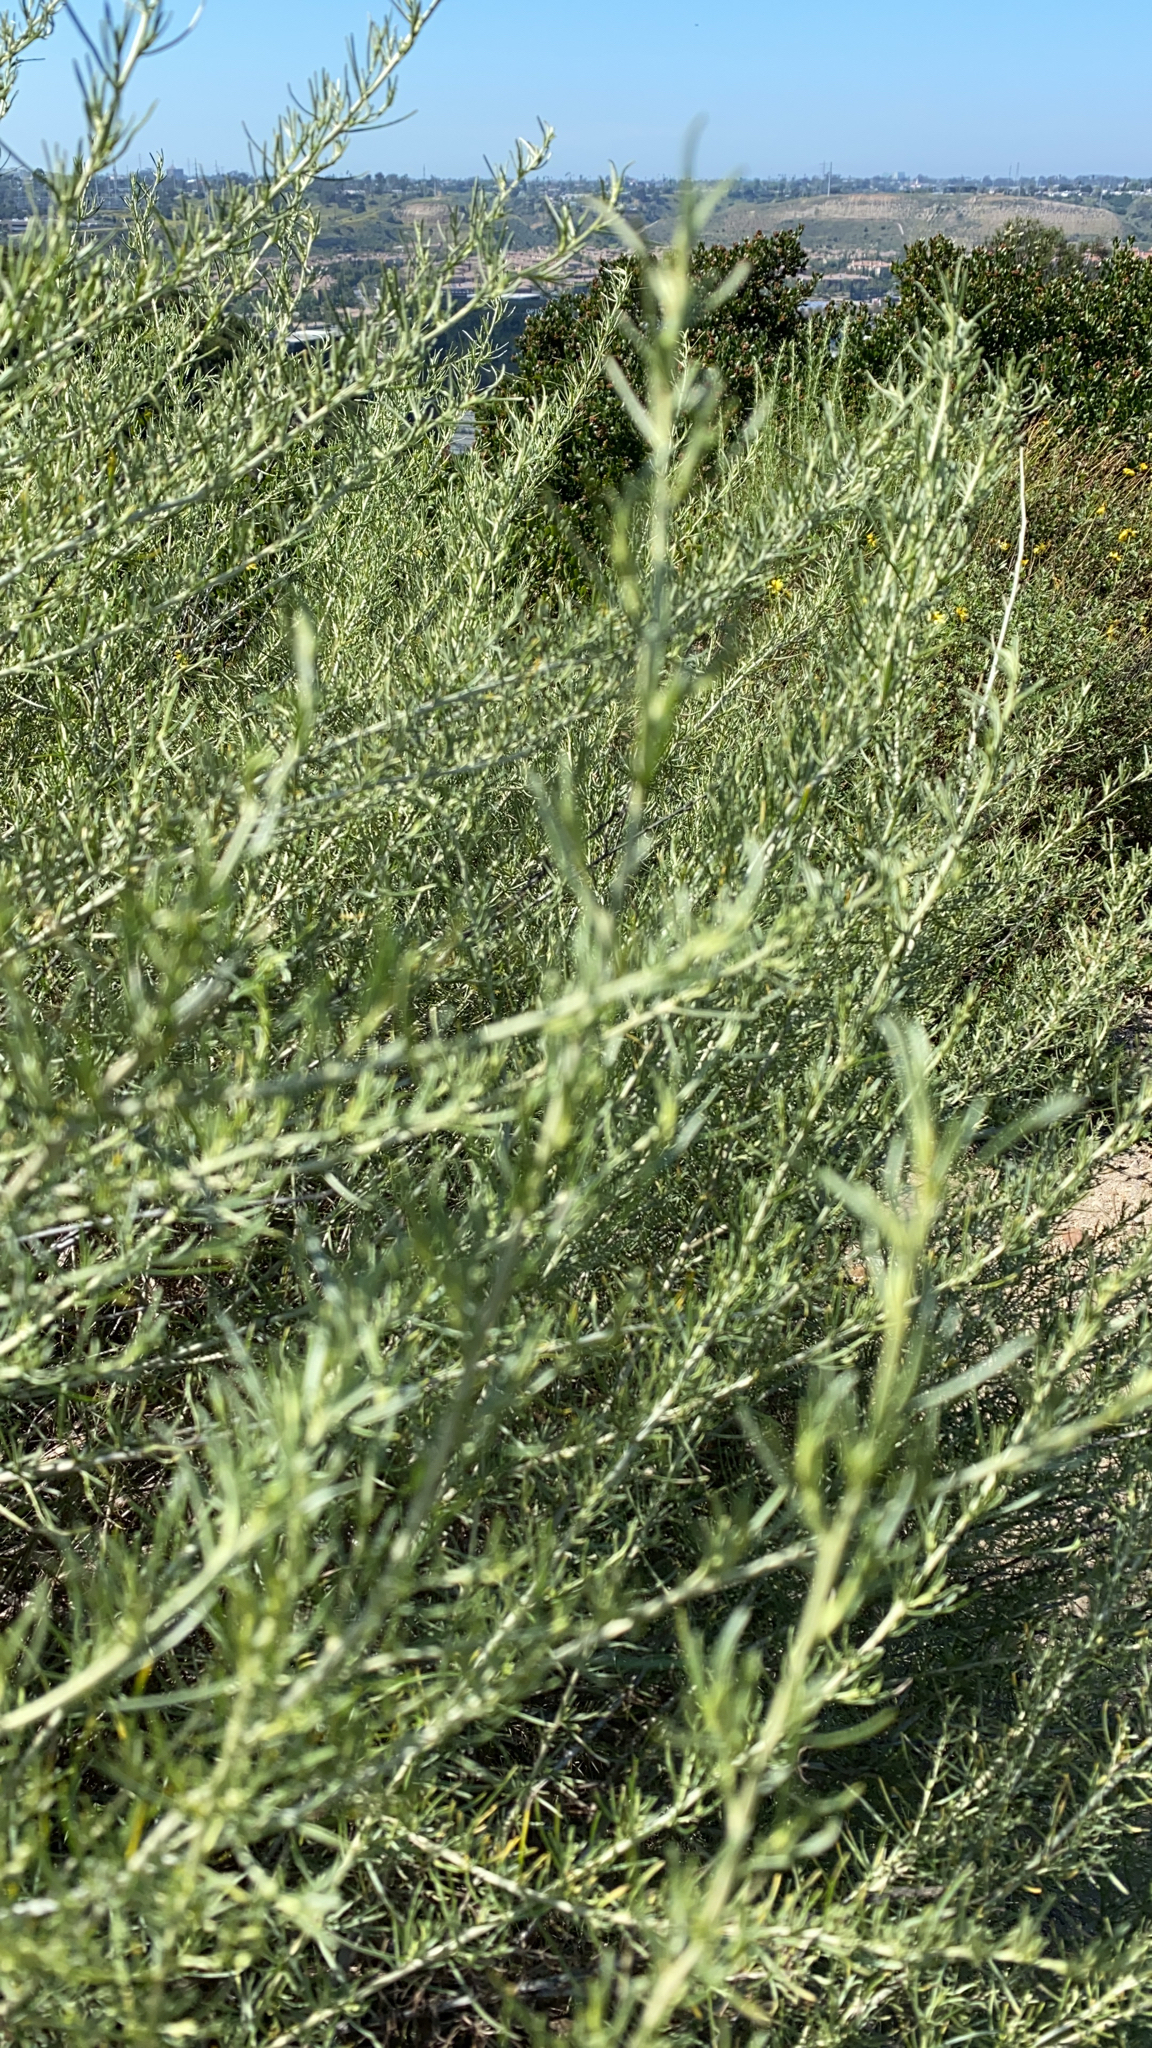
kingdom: Plantae
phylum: Tracheophyta
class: Magnoliopsida
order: Asterales
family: Asteraceae
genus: Artemisia
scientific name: Artemisia californica
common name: California sagebrush
